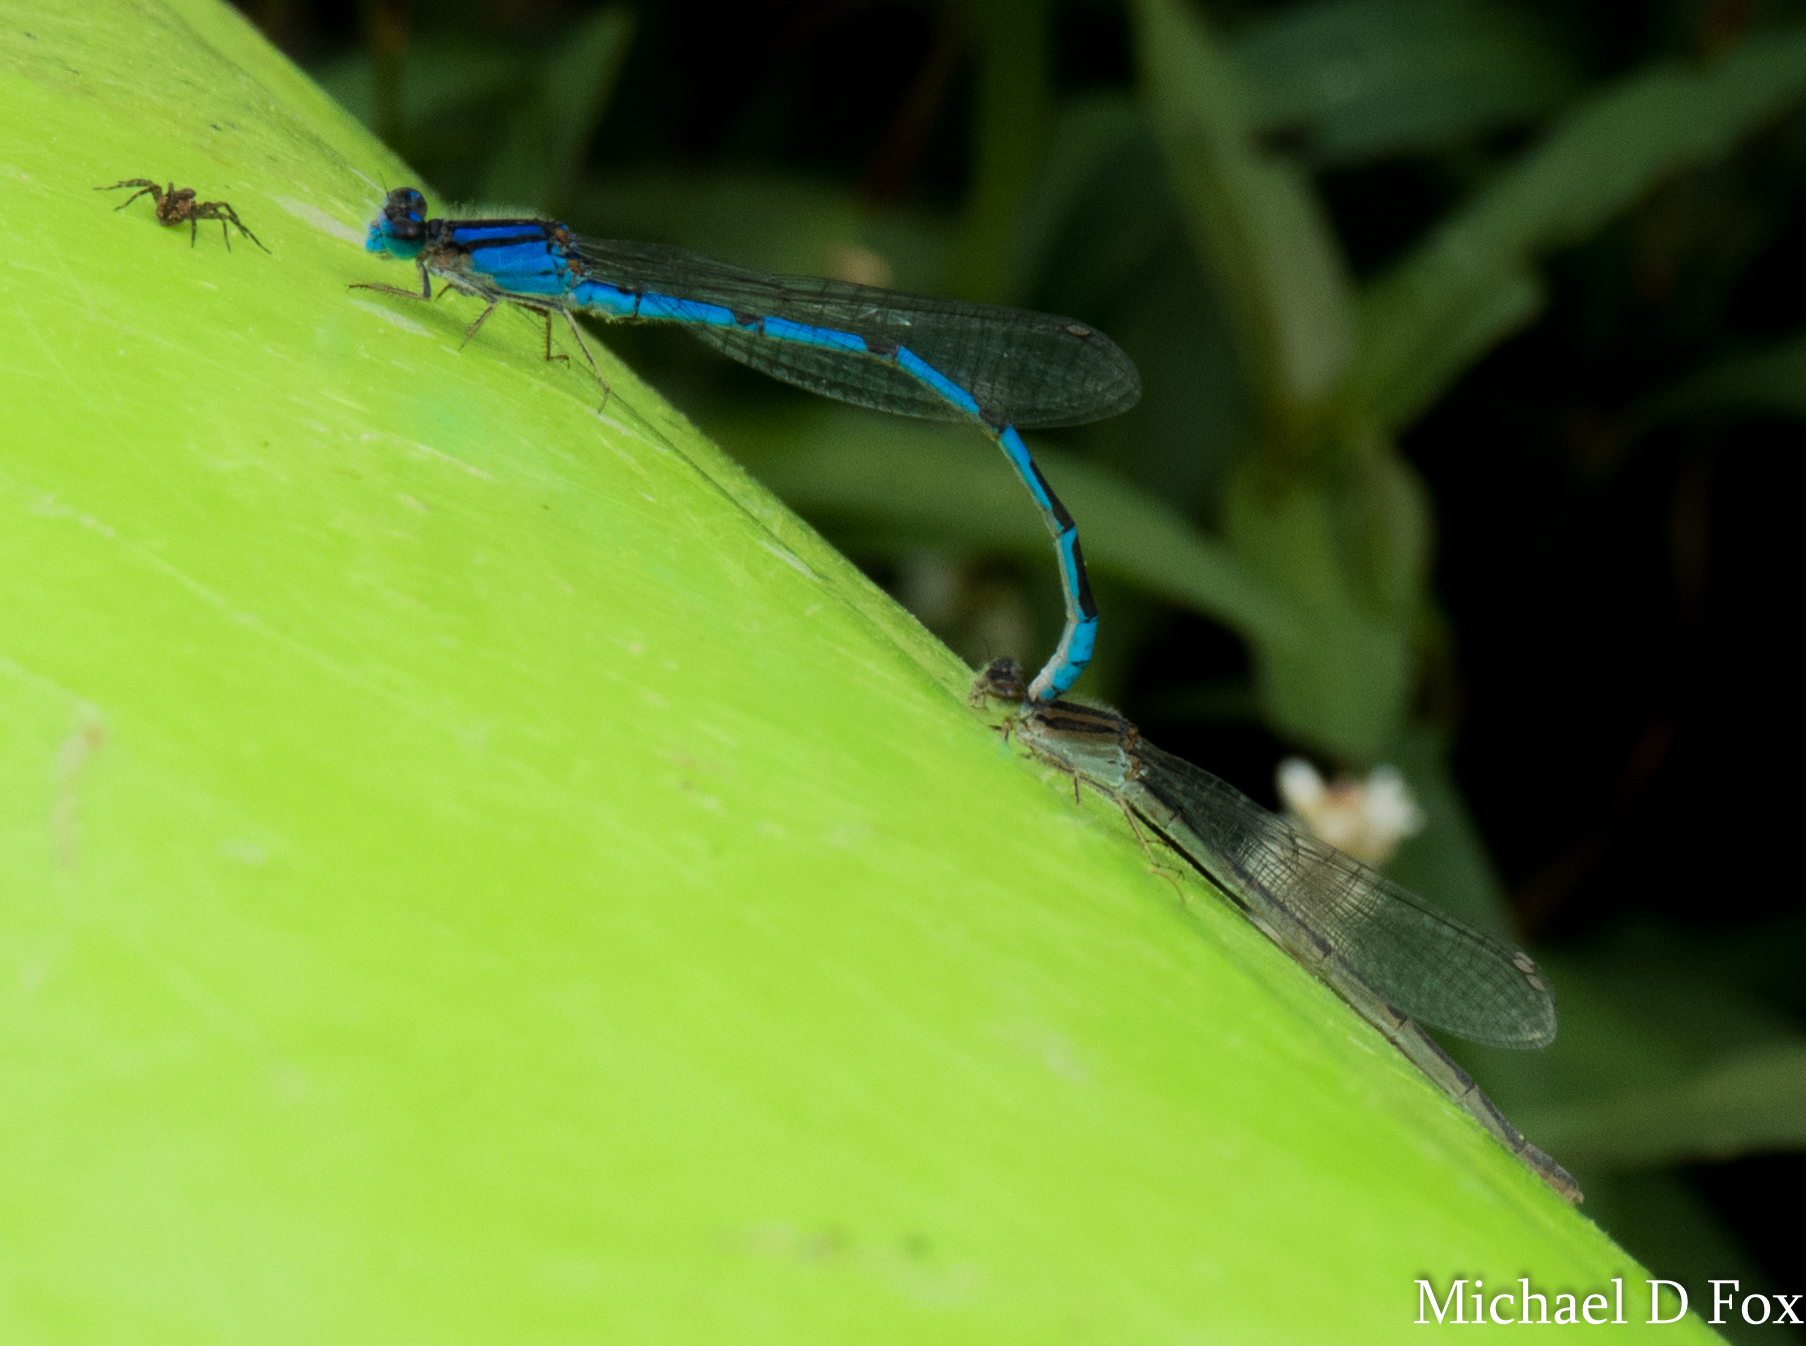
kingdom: Animalia
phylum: Arthropoda
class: Insecta
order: Odonata
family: Coenagrionidae
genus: Enallagma
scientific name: Enallagma civile
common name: Damselfly
